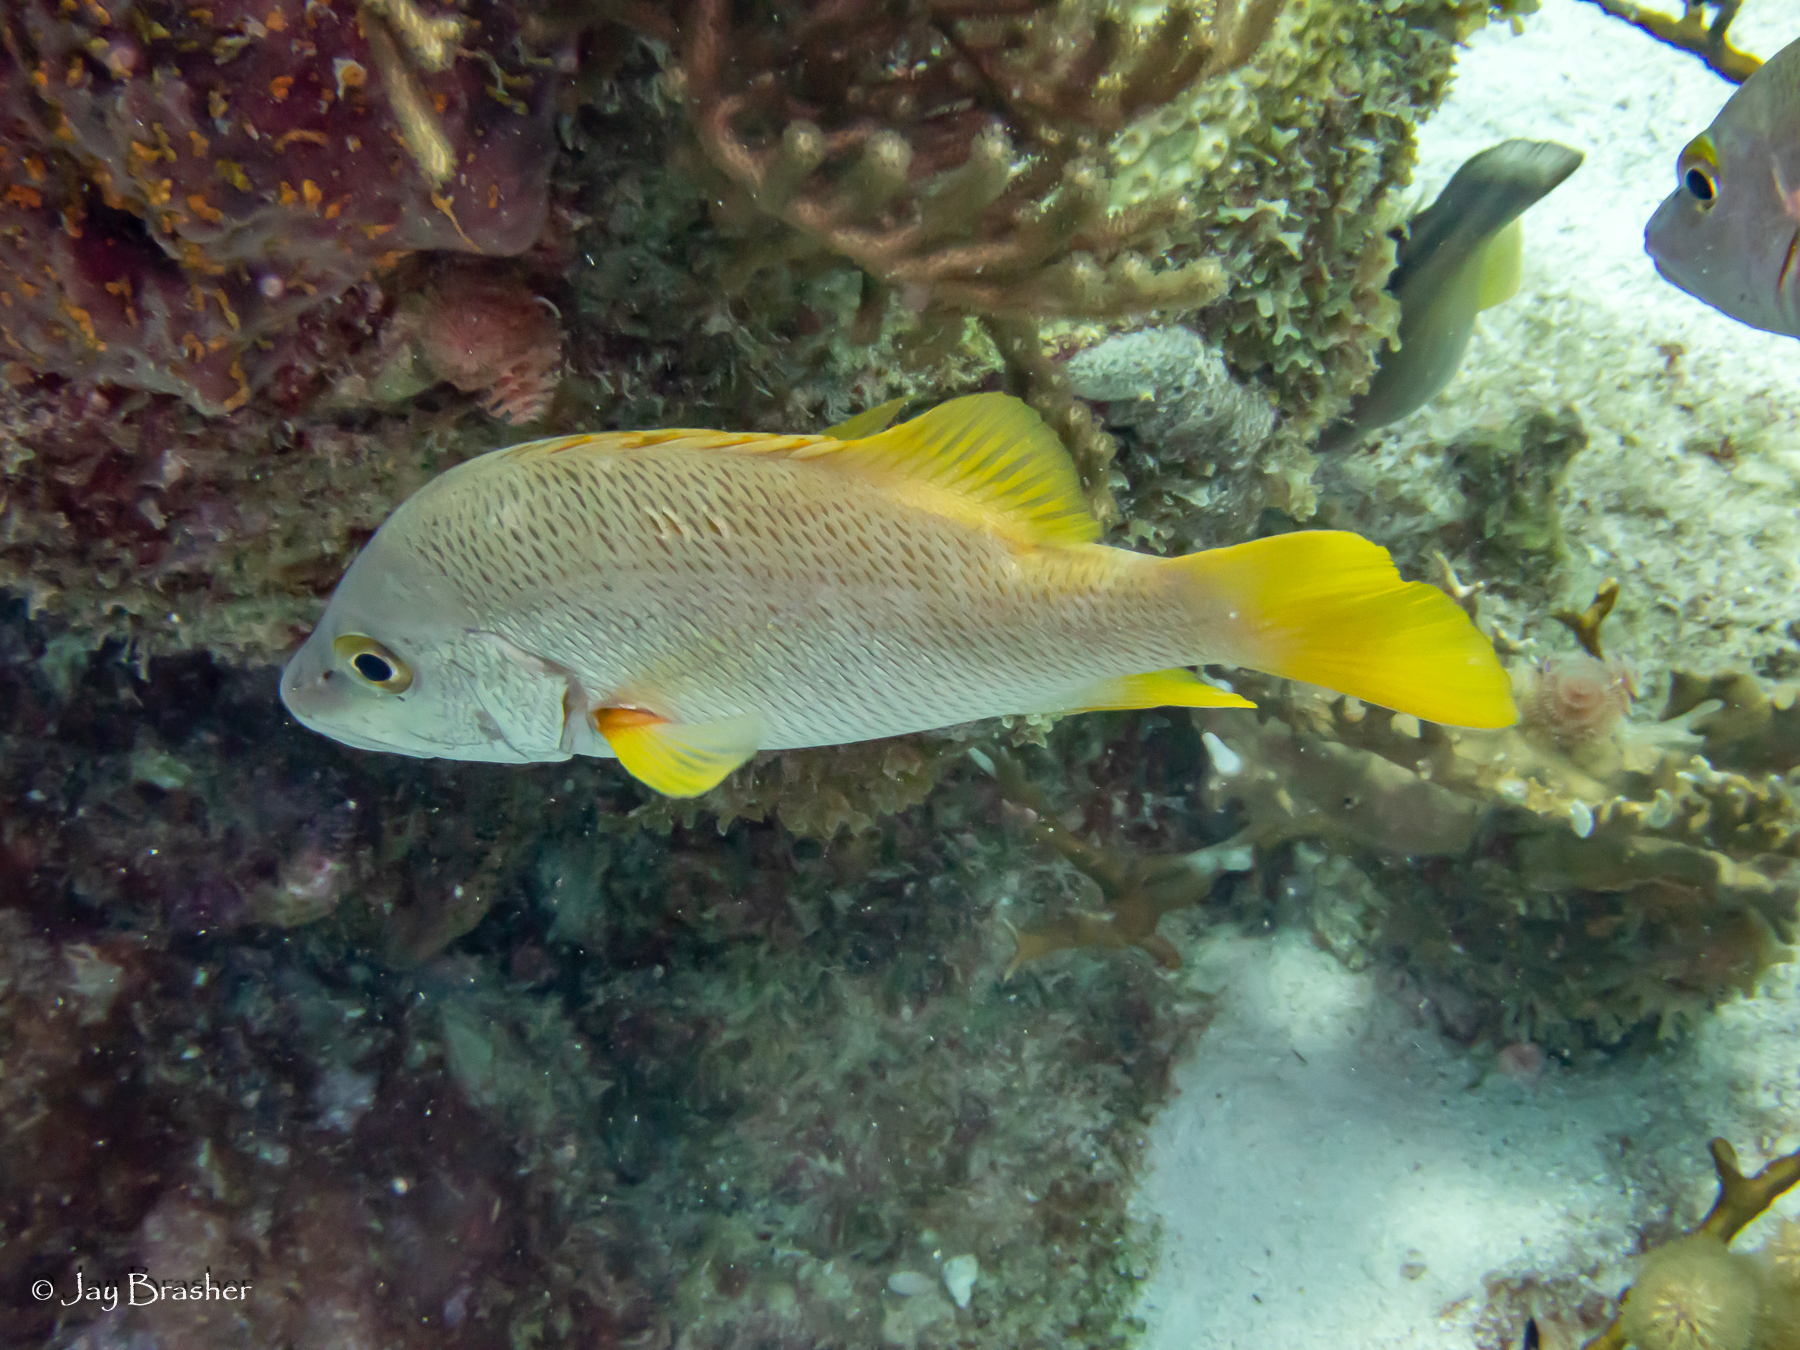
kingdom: Animalia
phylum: Chordata
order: Perciformes
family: Lutjanidae
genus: Lutjanus
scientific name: Lutjanus apodus
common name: Schoolmaster
